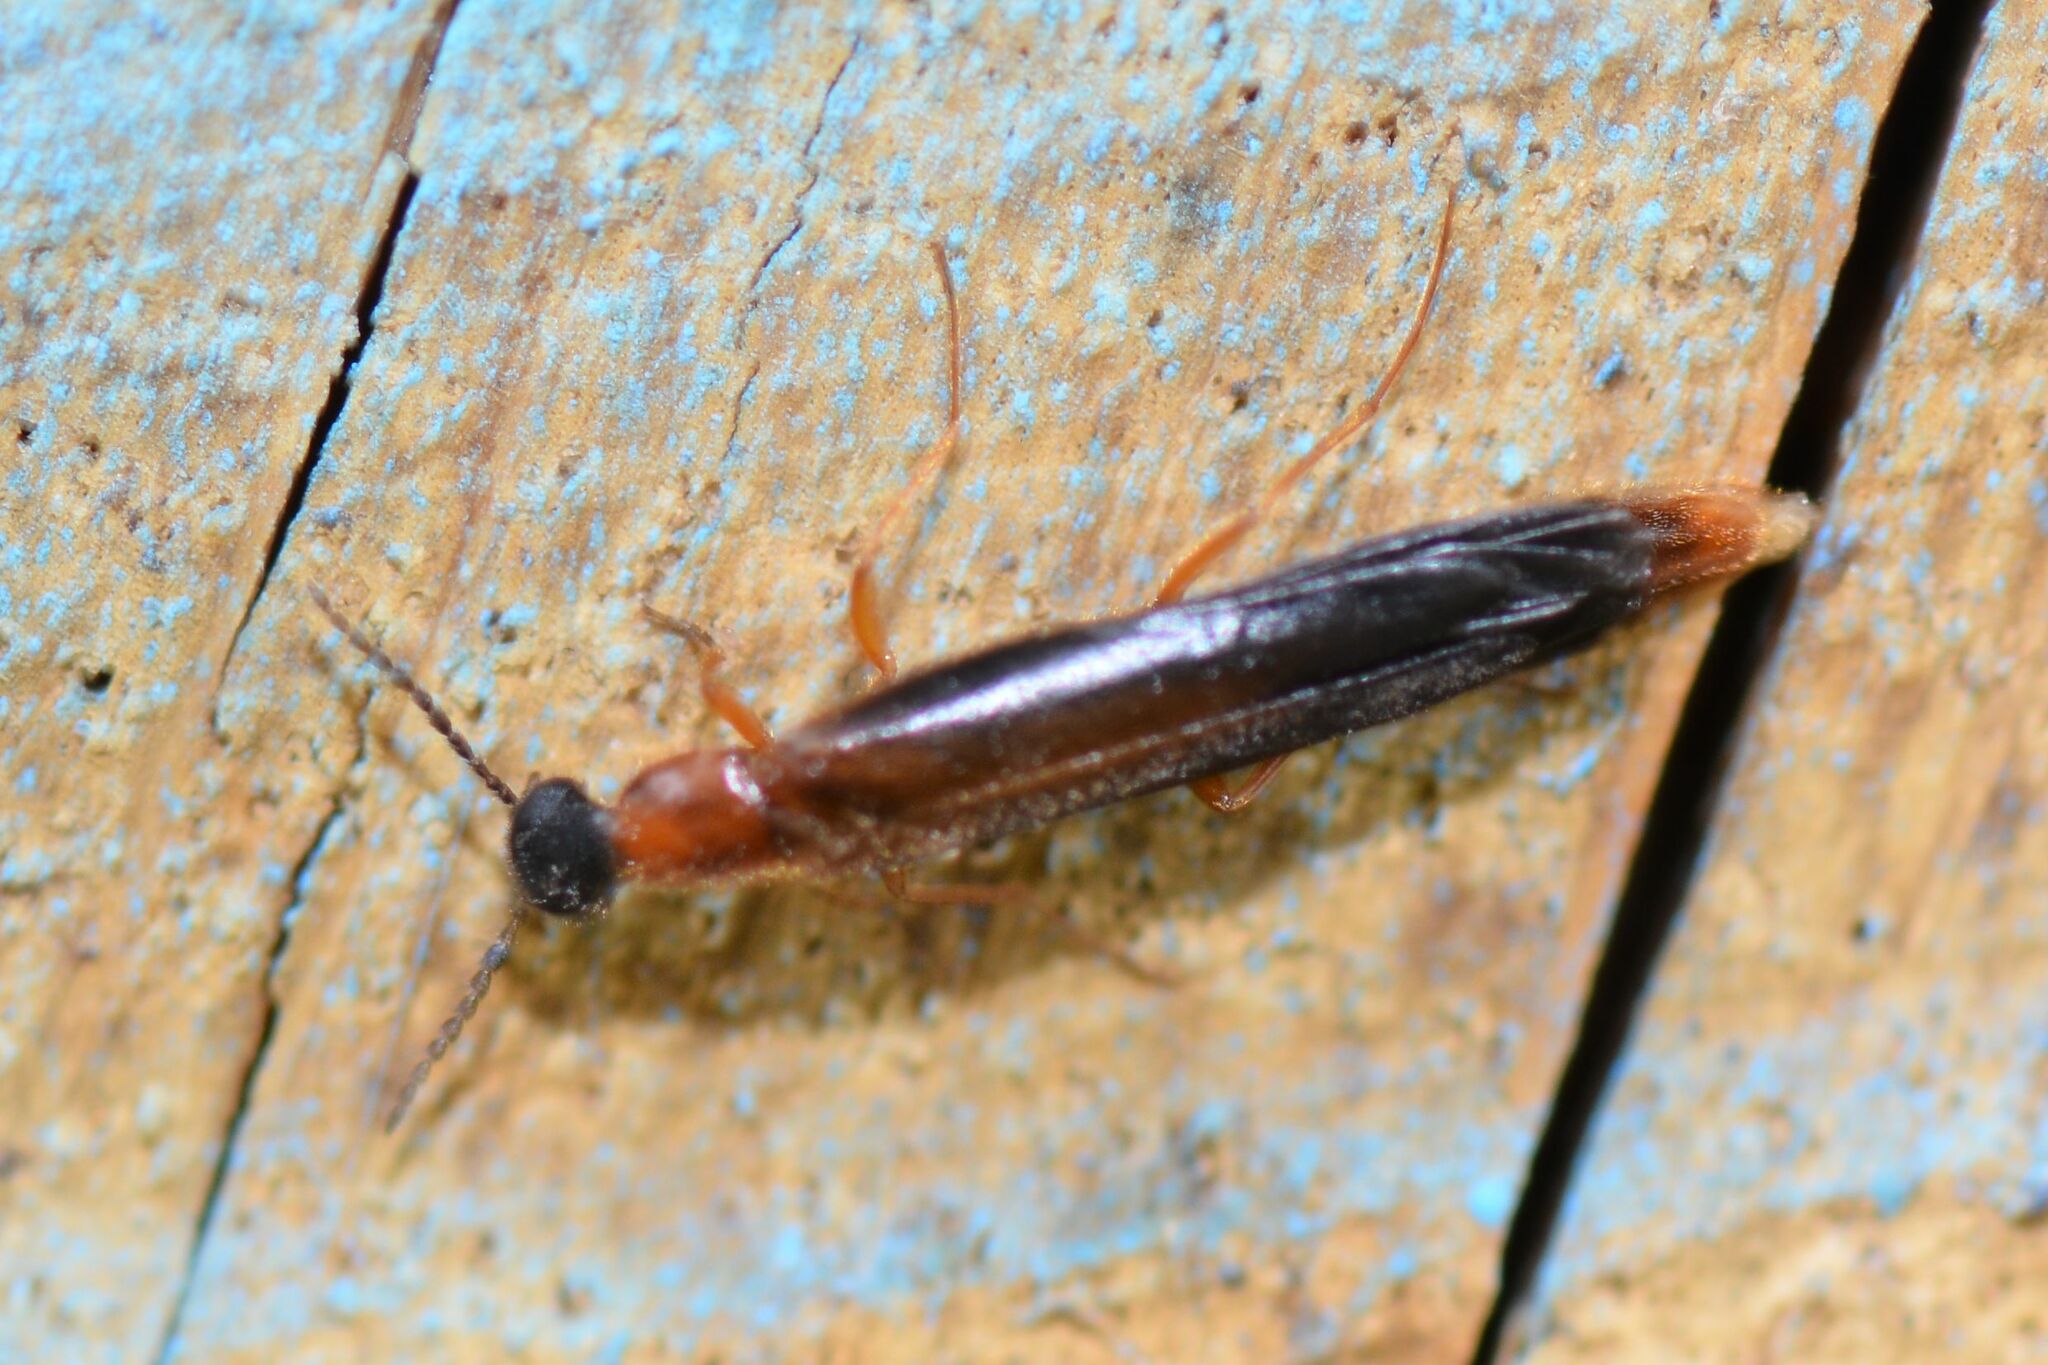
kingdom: Animalia
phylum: Arthropoda
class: Insecta
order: Coleoptera
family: Lymexylidae
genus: Lymexylon
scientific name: Lymexylon navale
